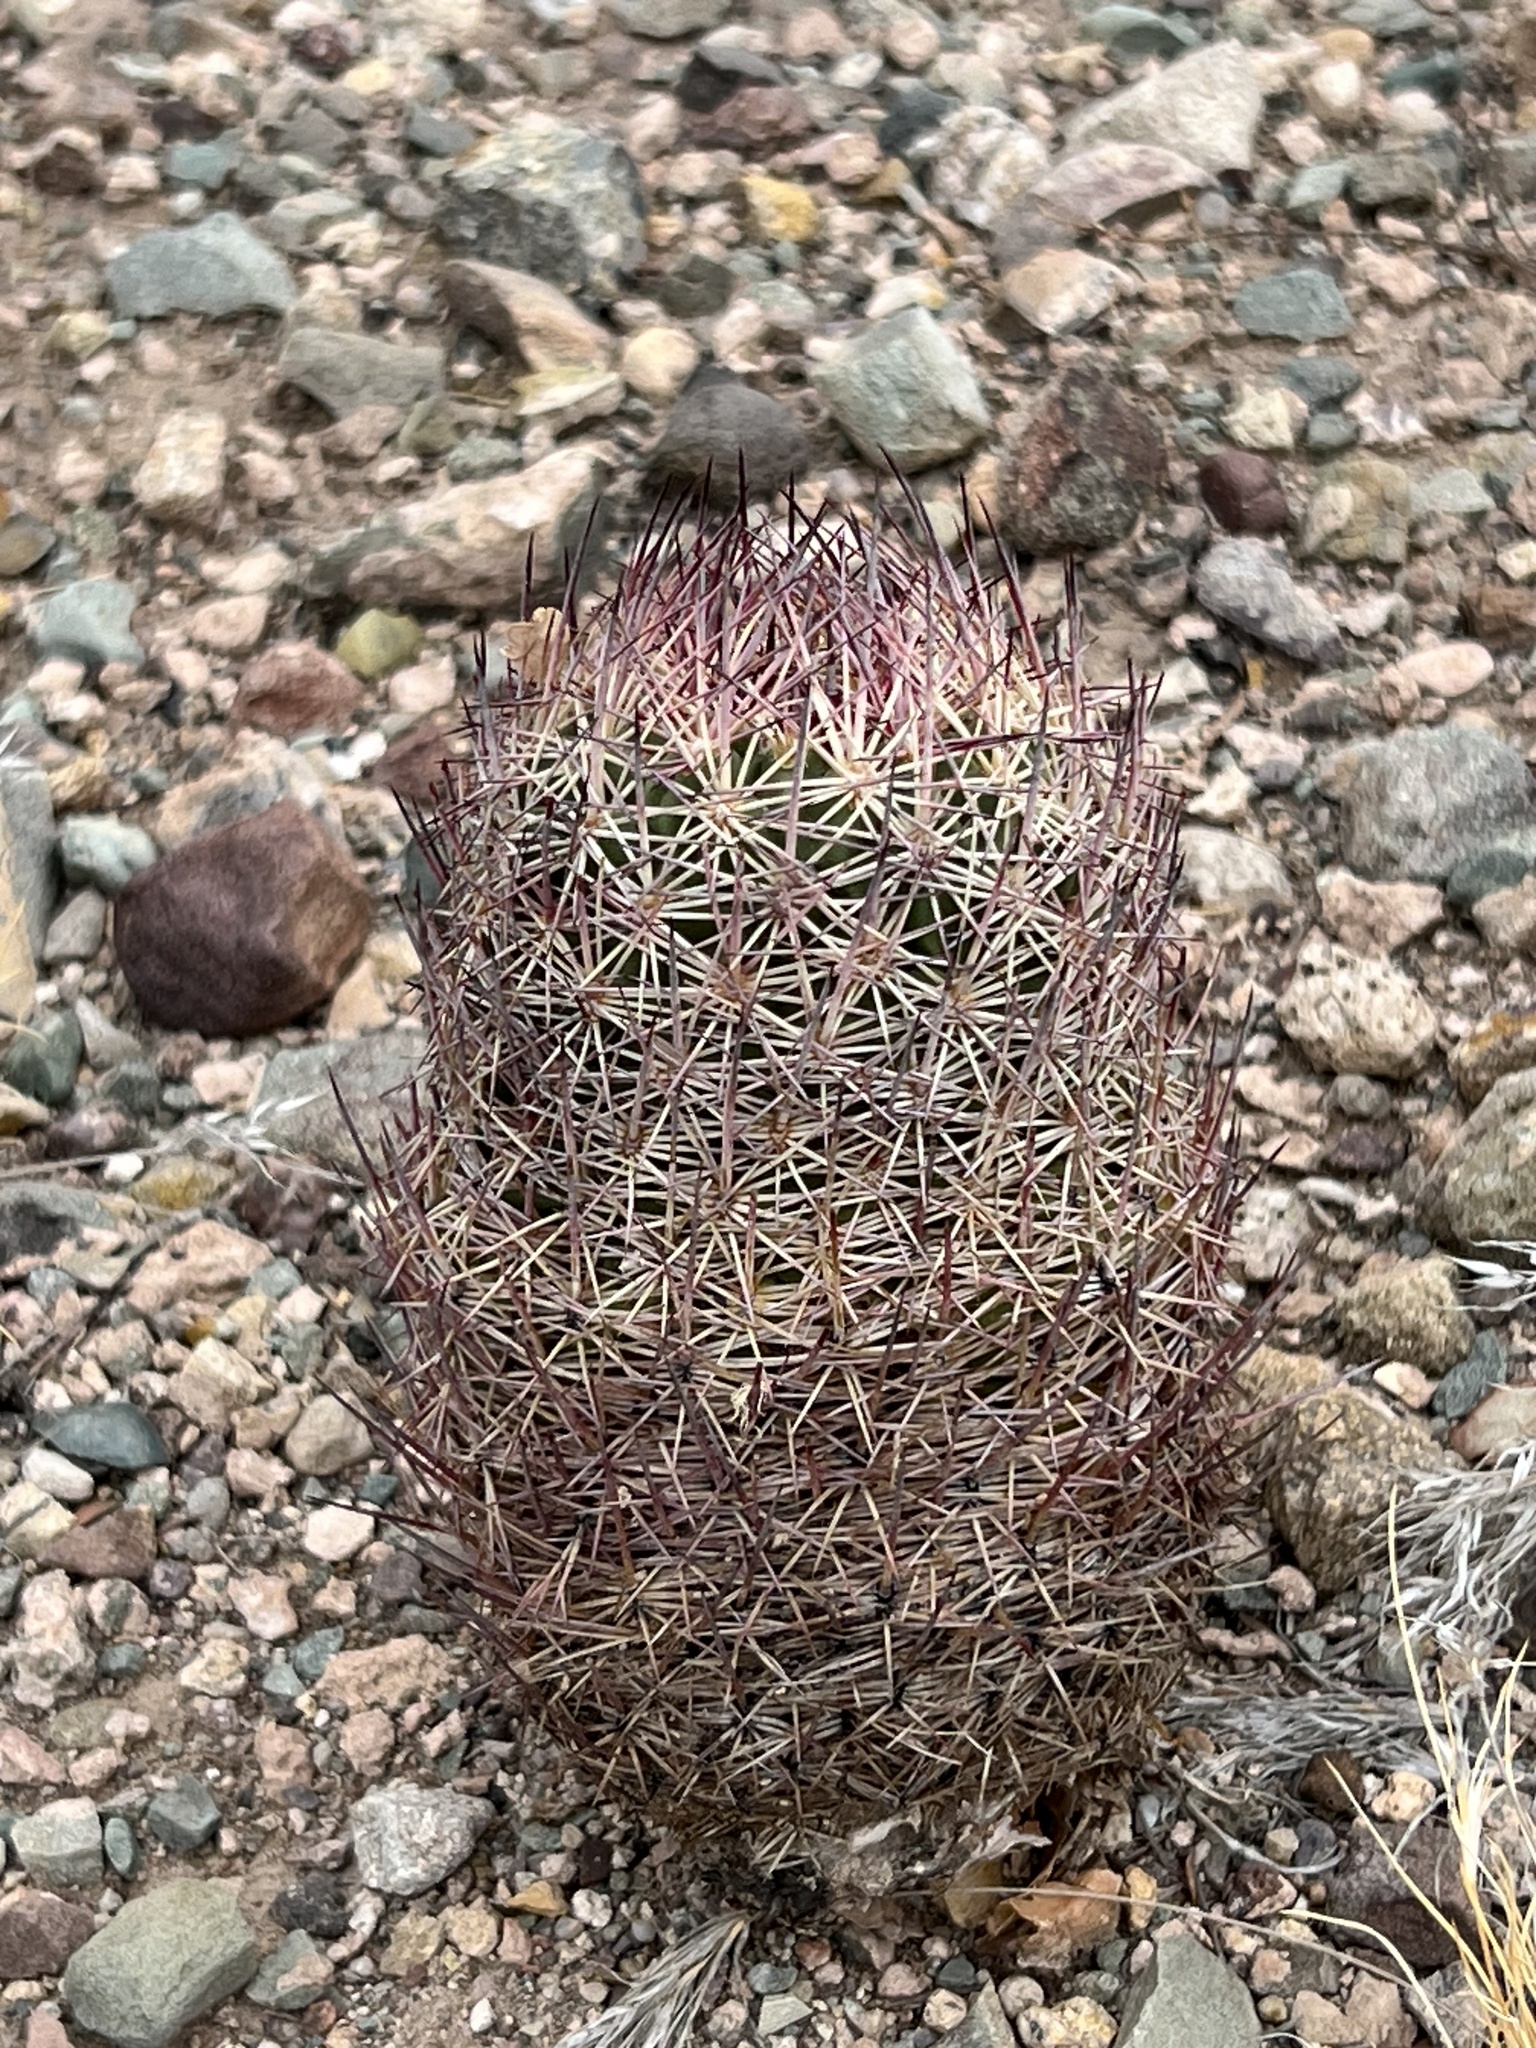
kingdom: Plantae
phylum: Tracheophyta
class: Magnoliopsida
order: Caryophyllales
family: Cactaceae
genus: Sclerocactus
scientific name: Sclerocactus johnsonii
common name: Eight-spine fishhook cactus
